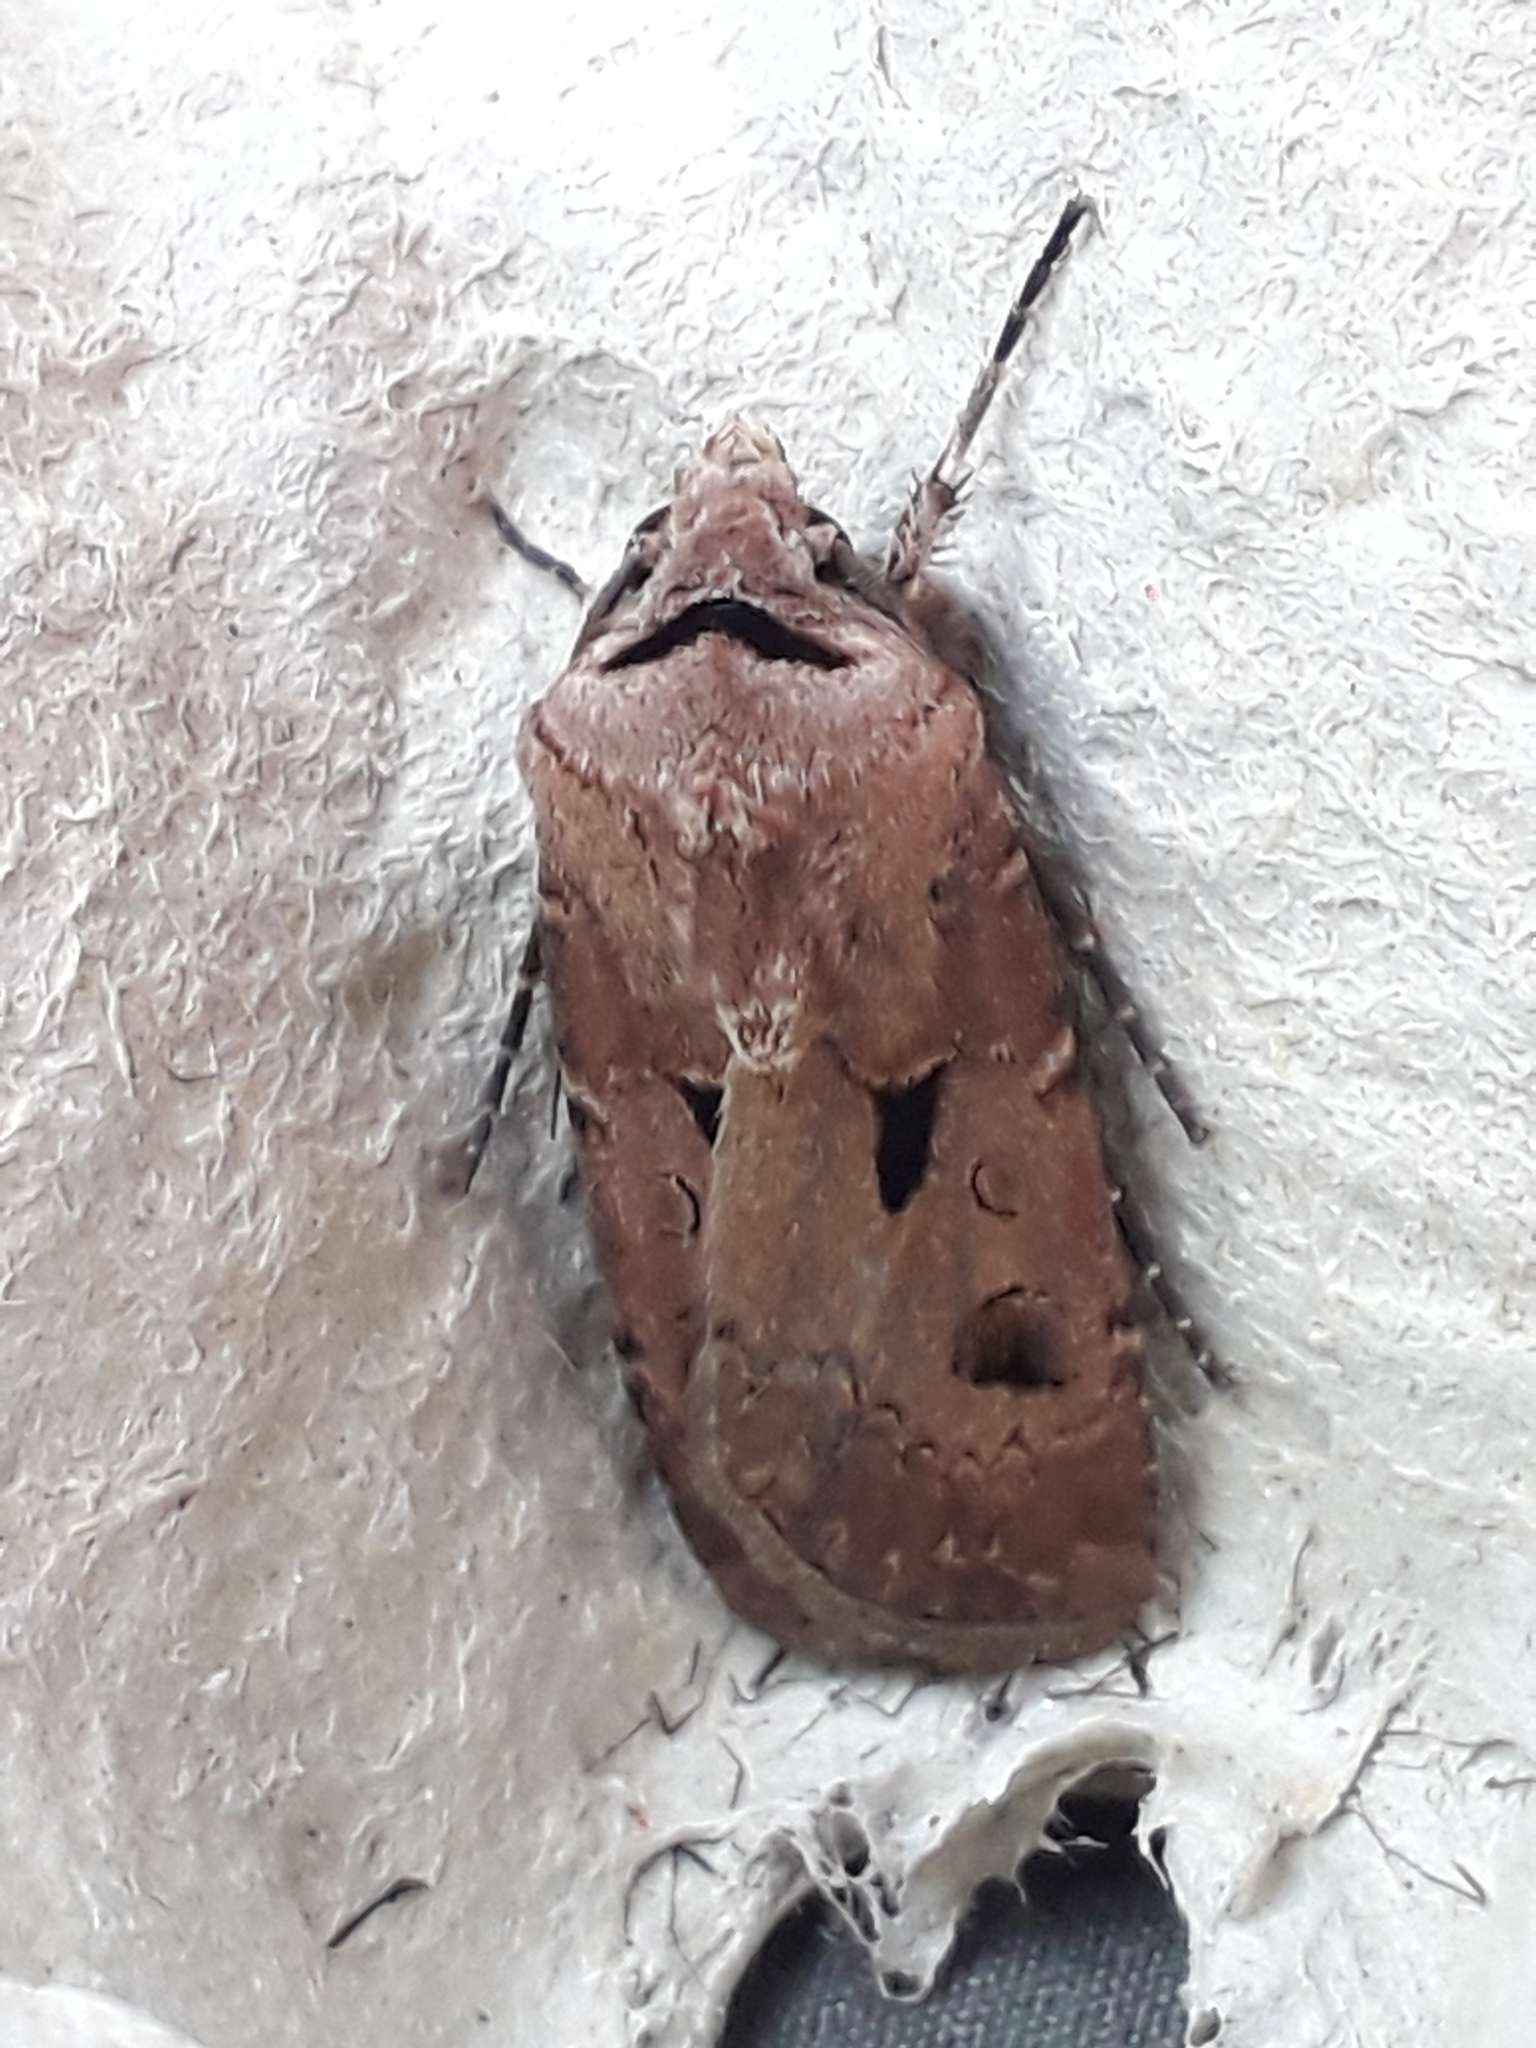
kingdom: Animalia
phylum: Arthropoda
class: Insecta
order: Lepidoptera
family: Noctuidae
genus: Agrotis
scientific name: Agrotis exclamationis
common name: Heart and dart
